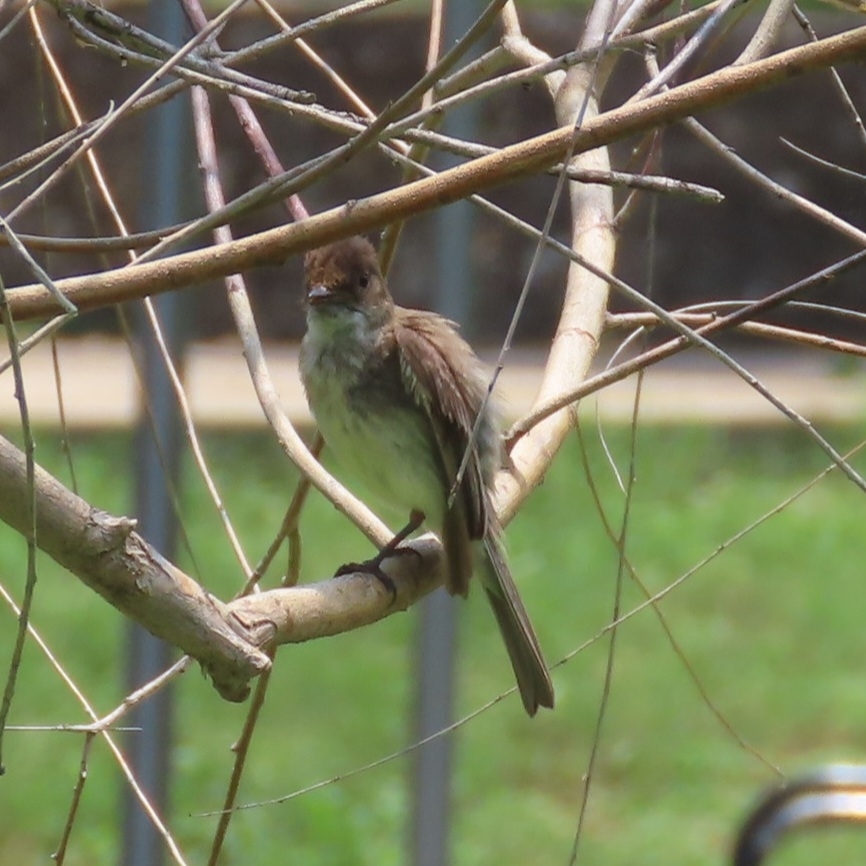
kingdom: Animalia
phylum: Chordata
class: Aves
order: Passeriformes
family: Tyrannidae
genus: Sayornis
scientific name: Sayornis phoebe
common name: Eastern phoebe
